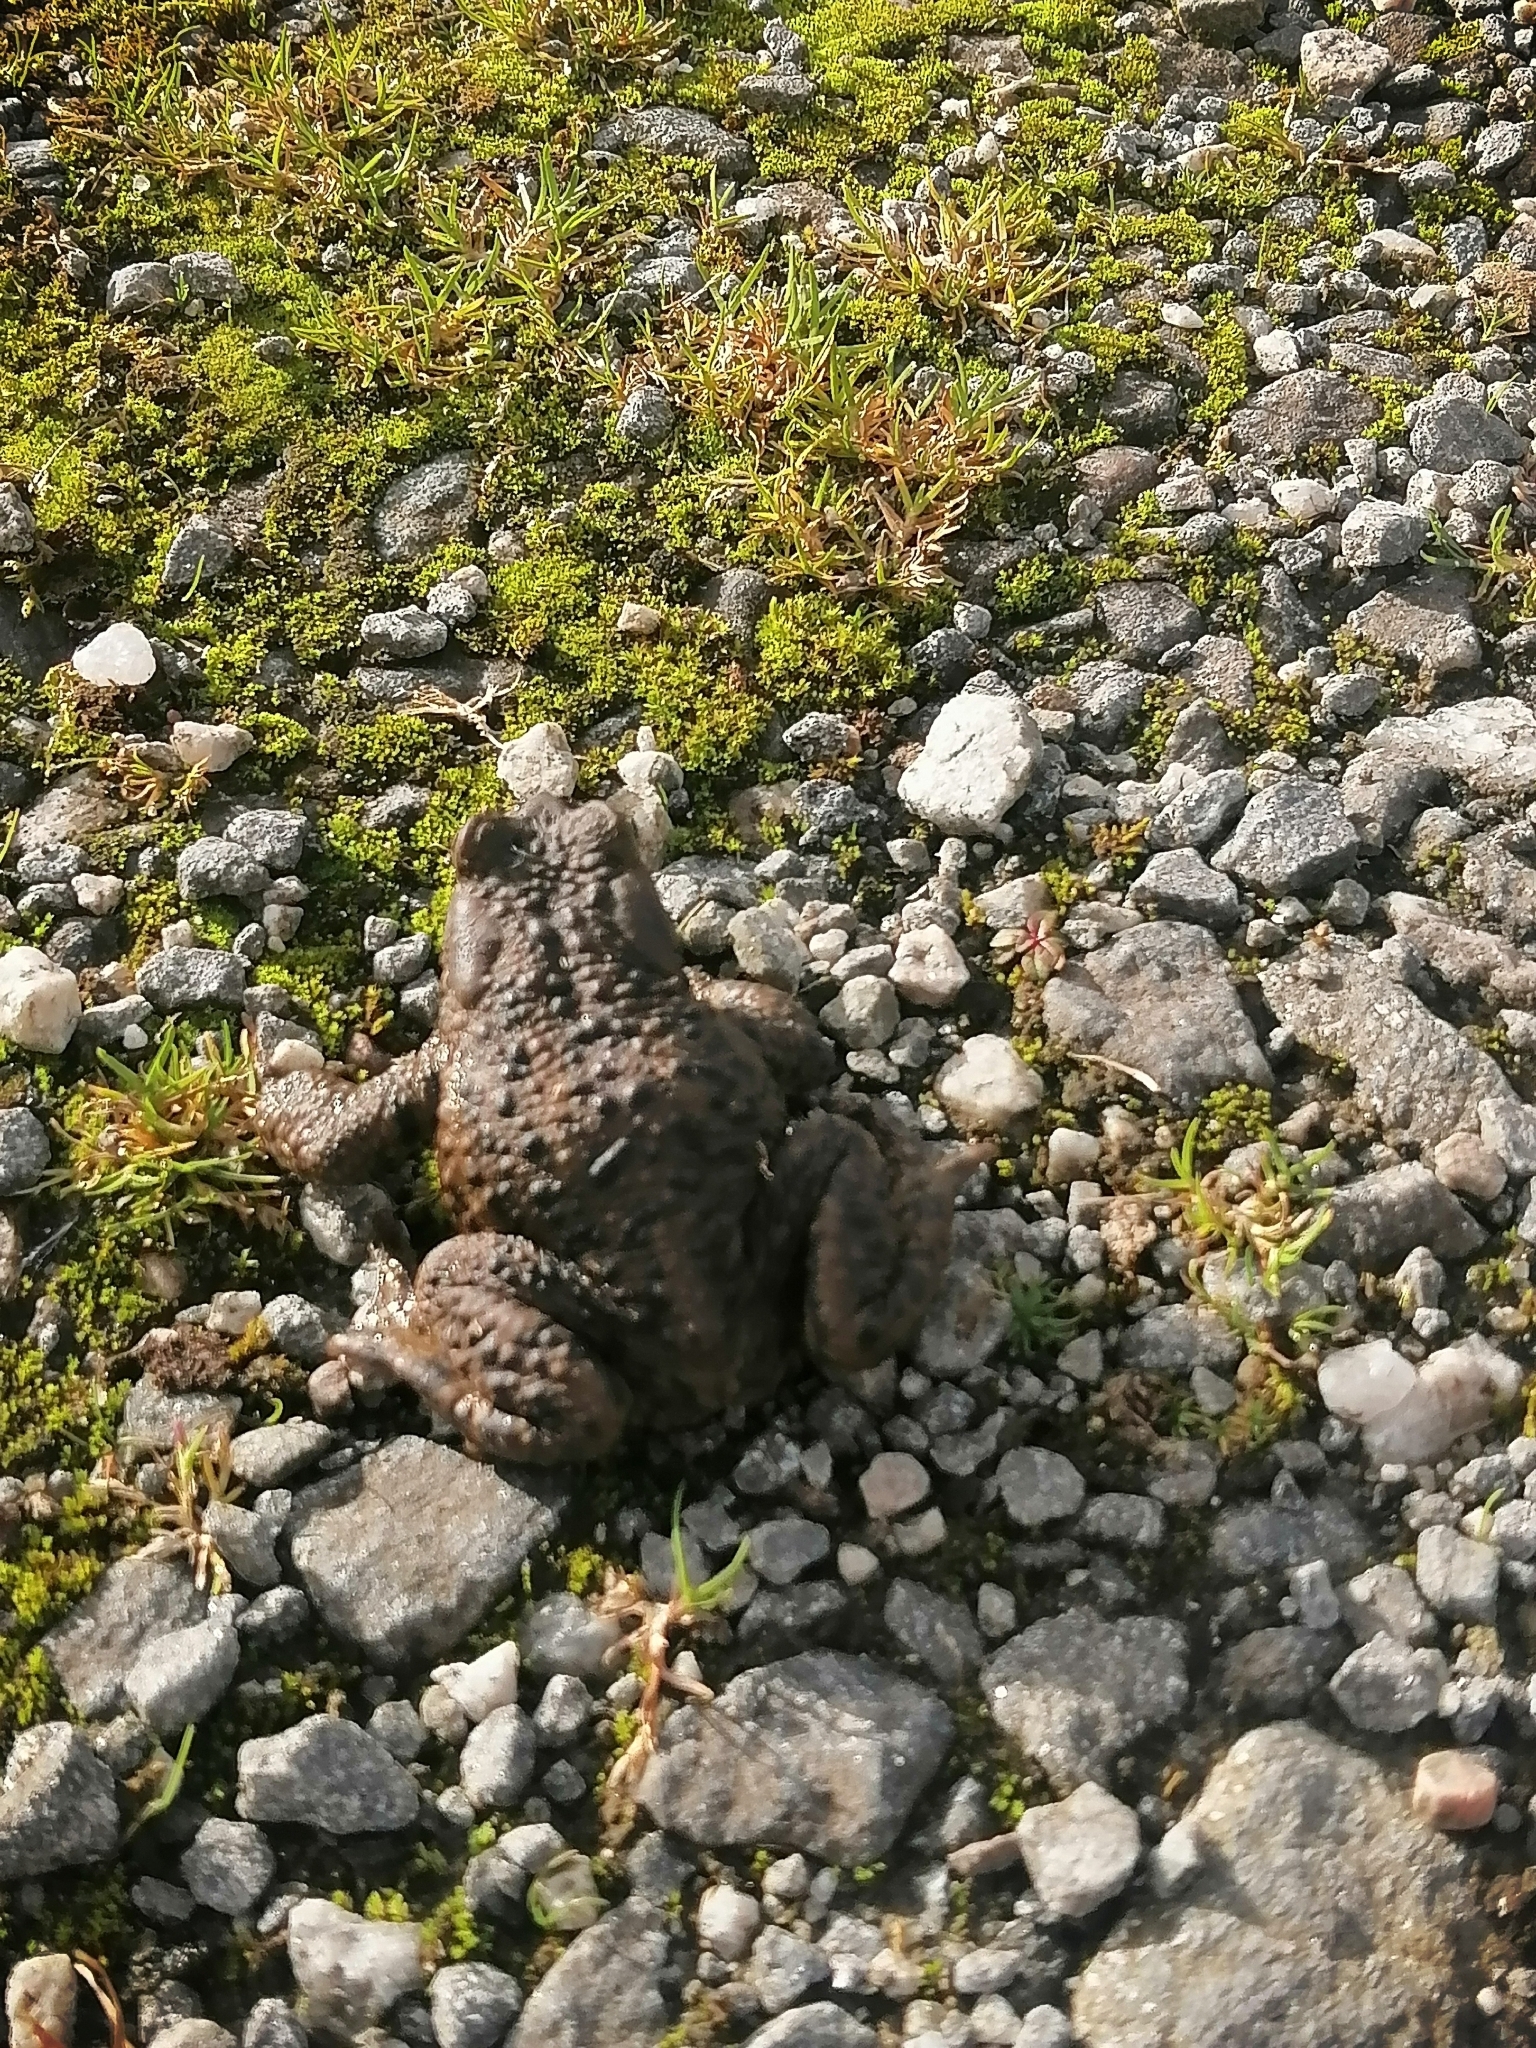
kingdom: Animalia
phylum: Chordata
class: Amphibia
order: Anura
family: Bufonidae
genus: Bufo
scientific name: Bufo bufo
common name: Common toad
